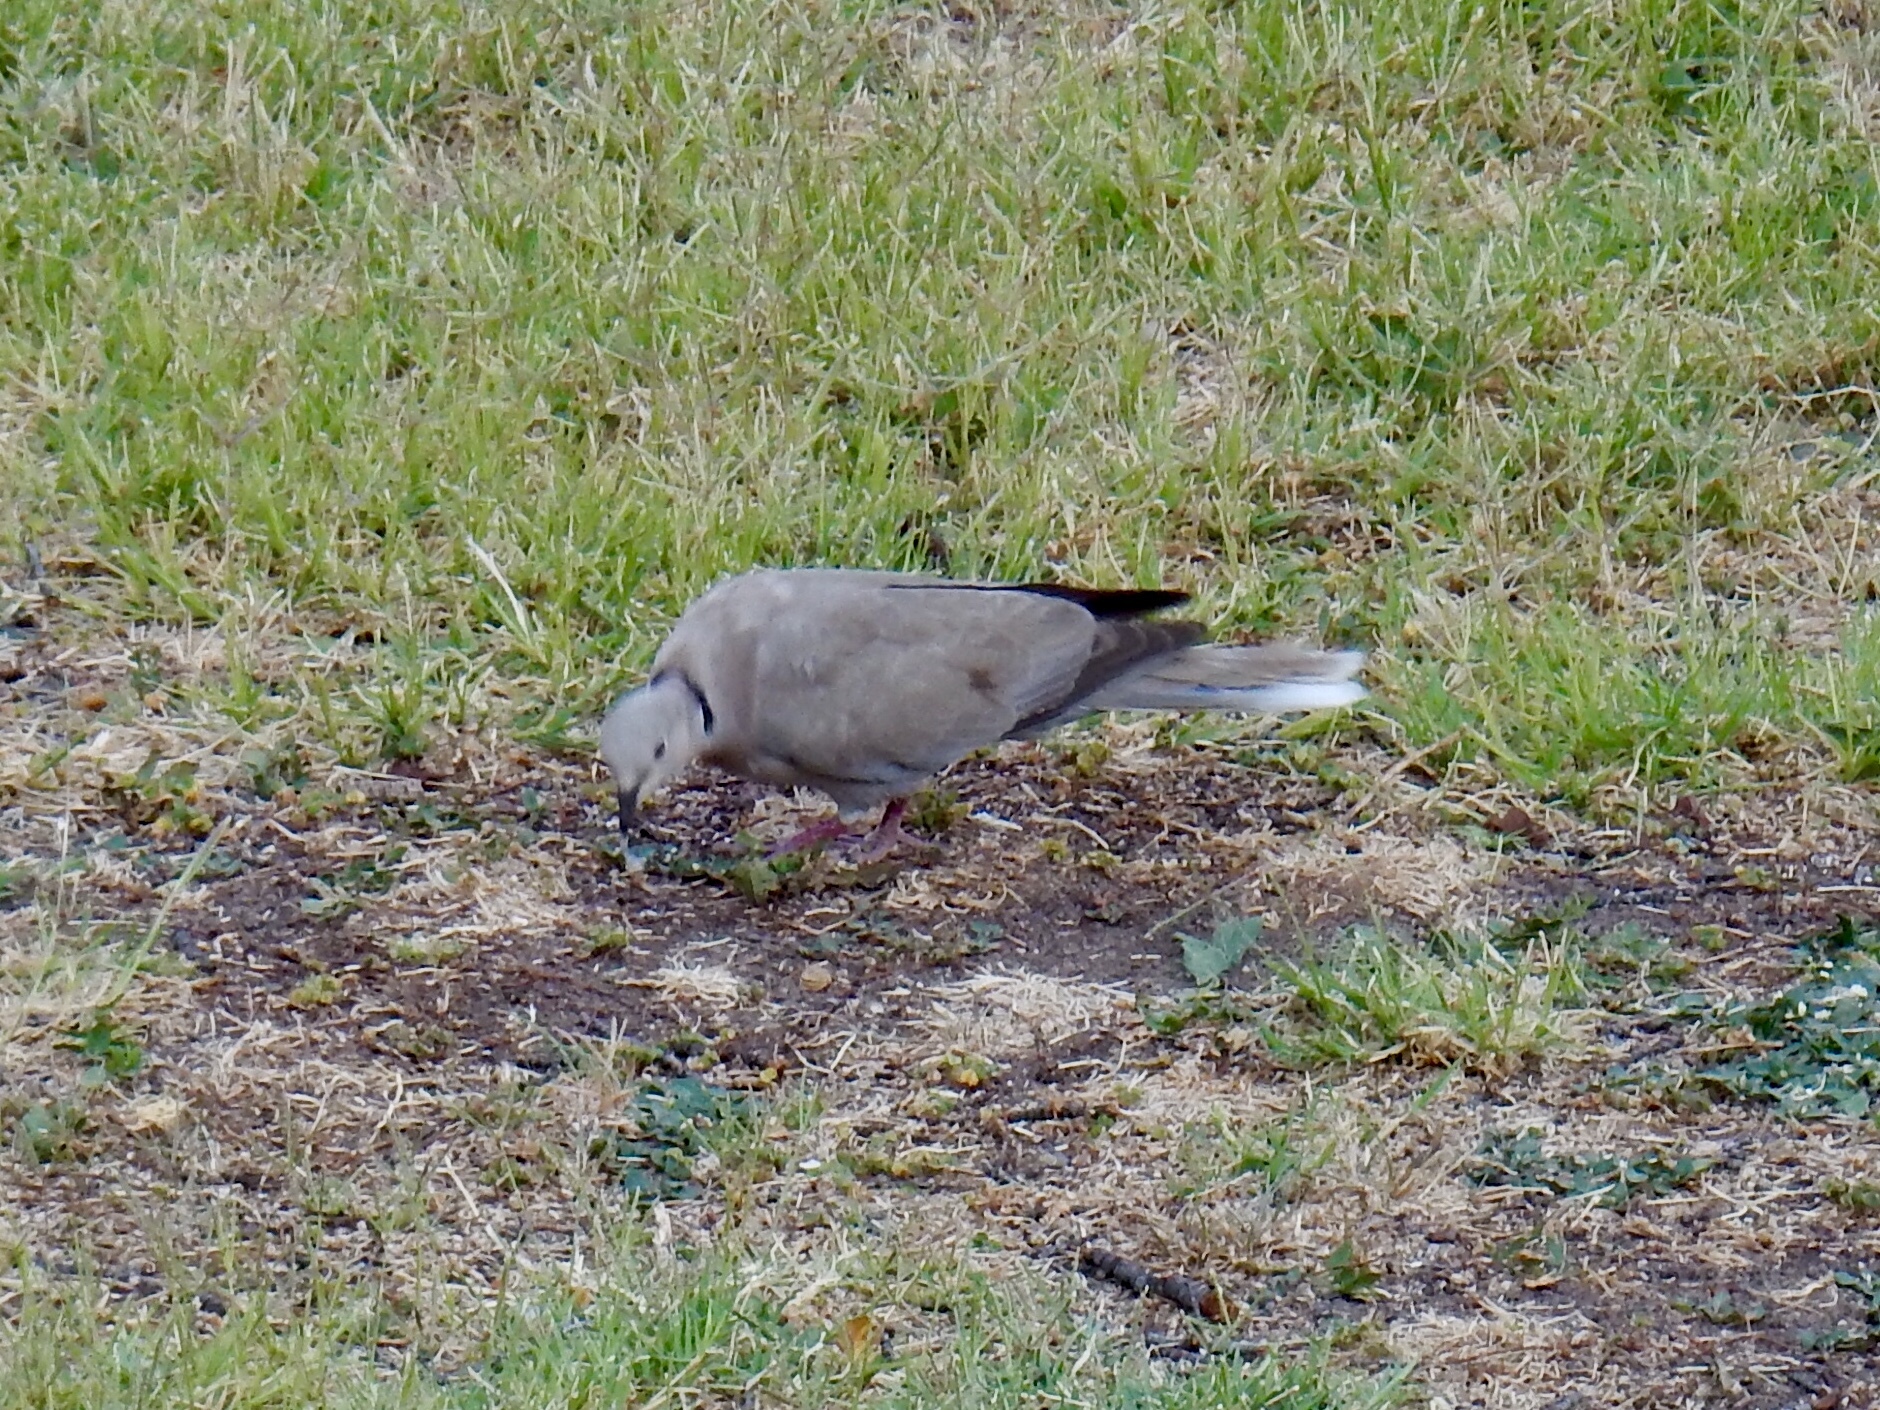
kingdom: Animalia
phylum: Chordata
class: Aves
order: Columbiformes
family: Columbidae
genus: Streptopelia
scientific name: Streptopelia decaocto
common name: Eurasian collared dove
